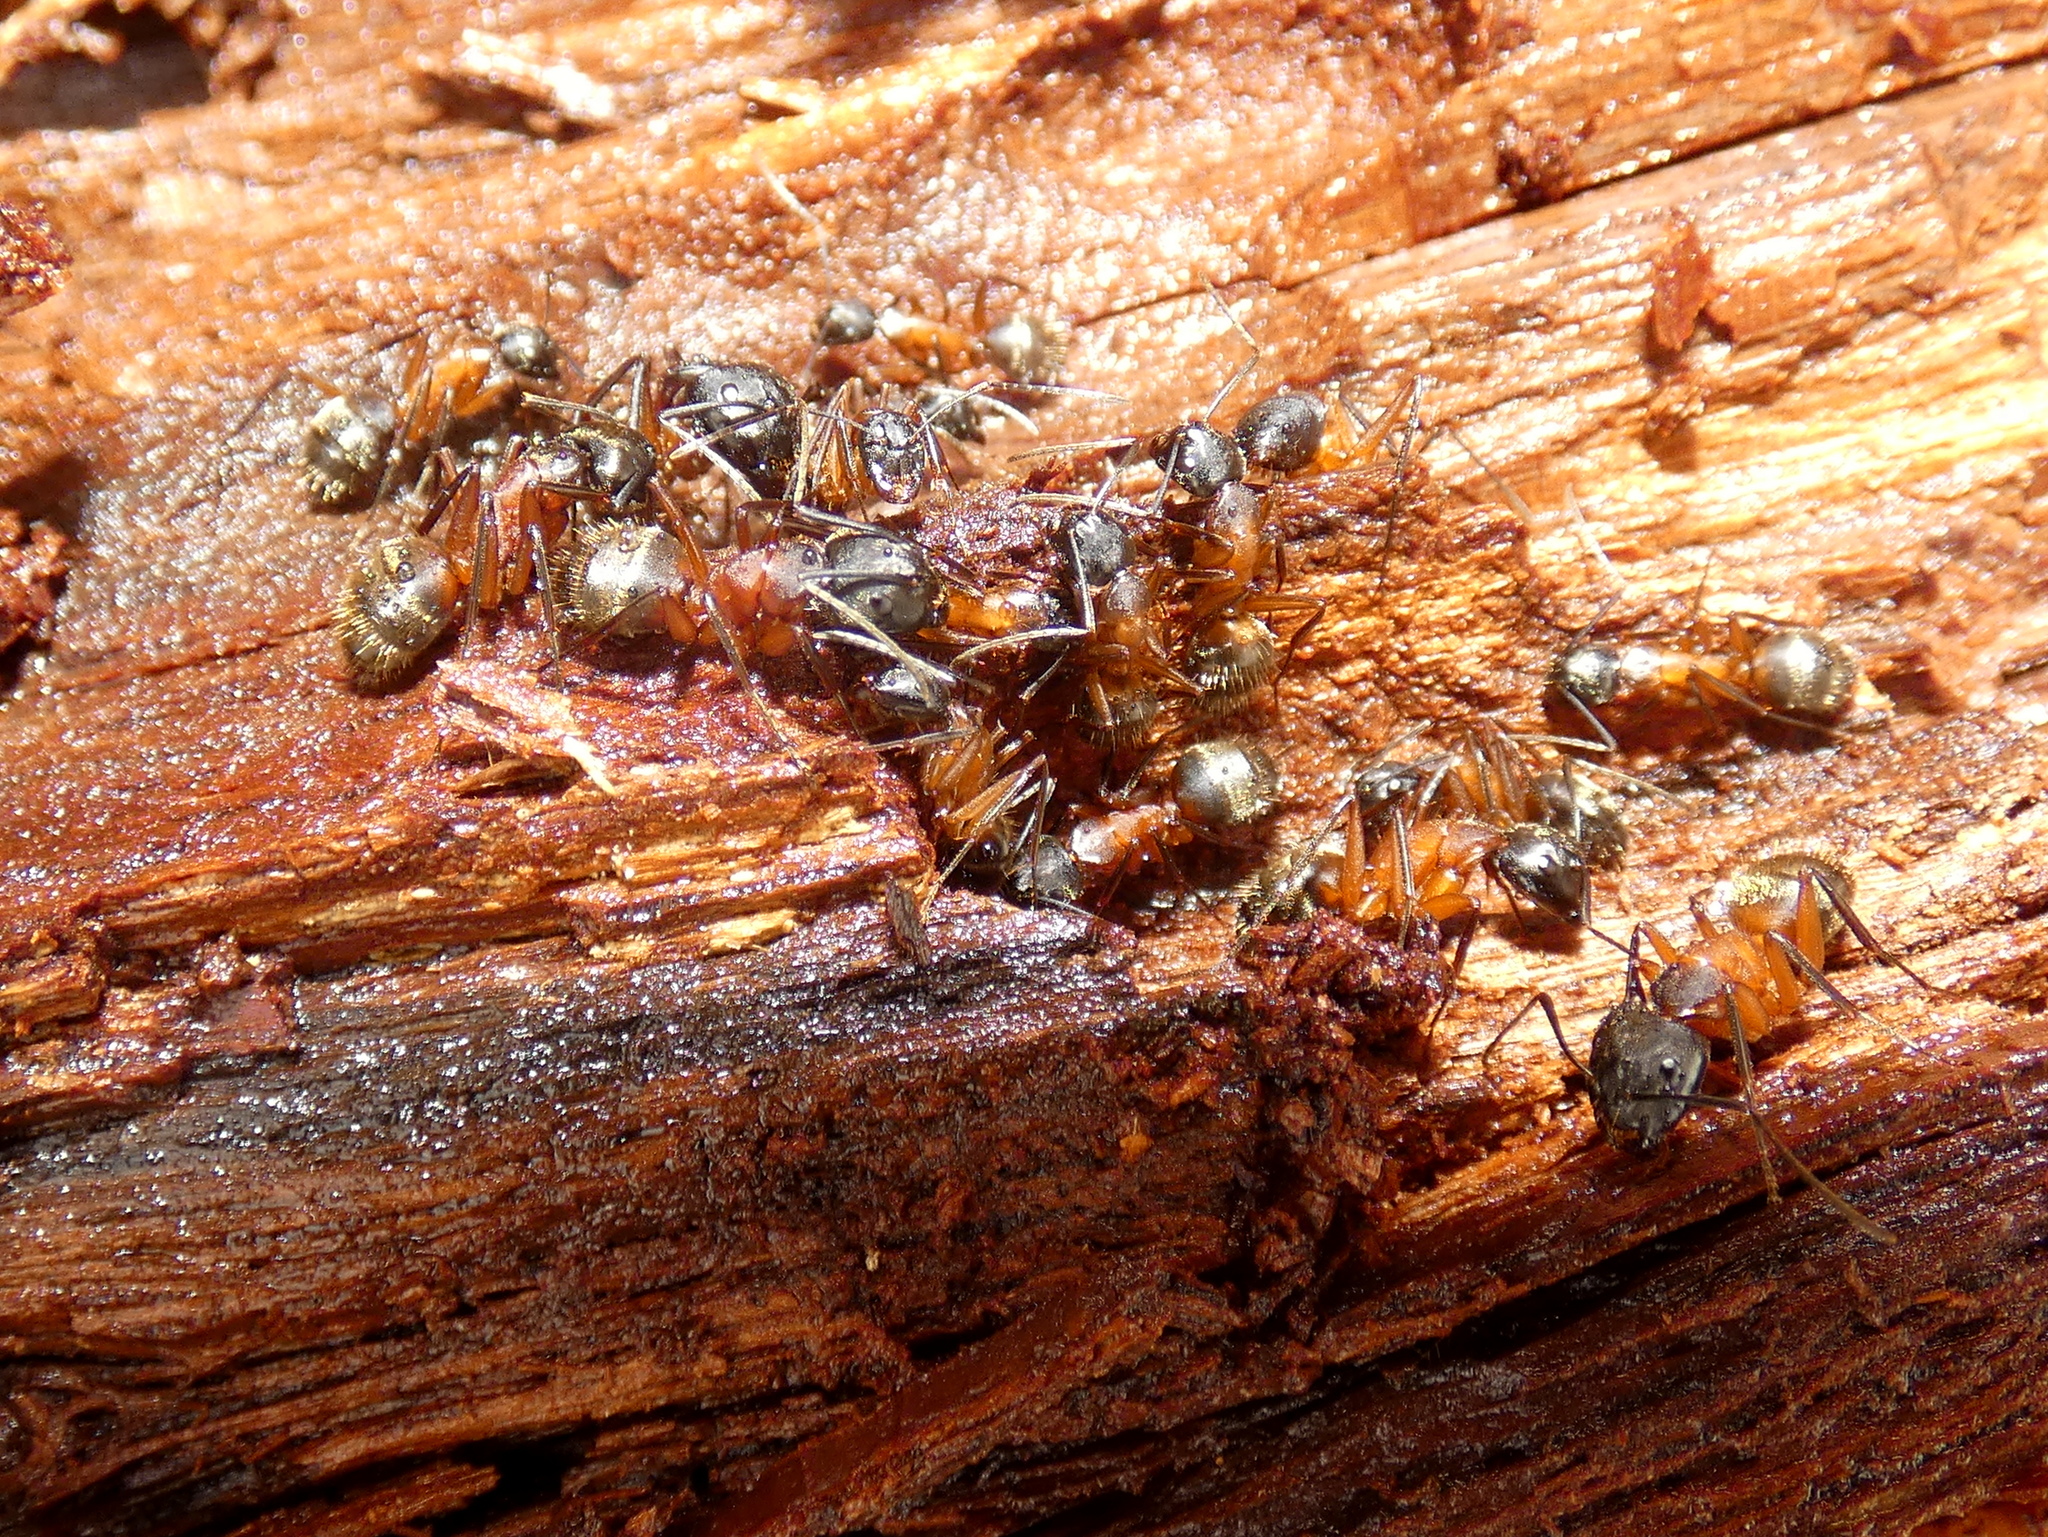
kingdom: Animalia
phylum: Arthropoda
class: Insecta
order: Hymenoptera
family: Formicidae
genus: Camponotus
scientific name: Camponotus chromaiodes
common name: Red carpenter ant
